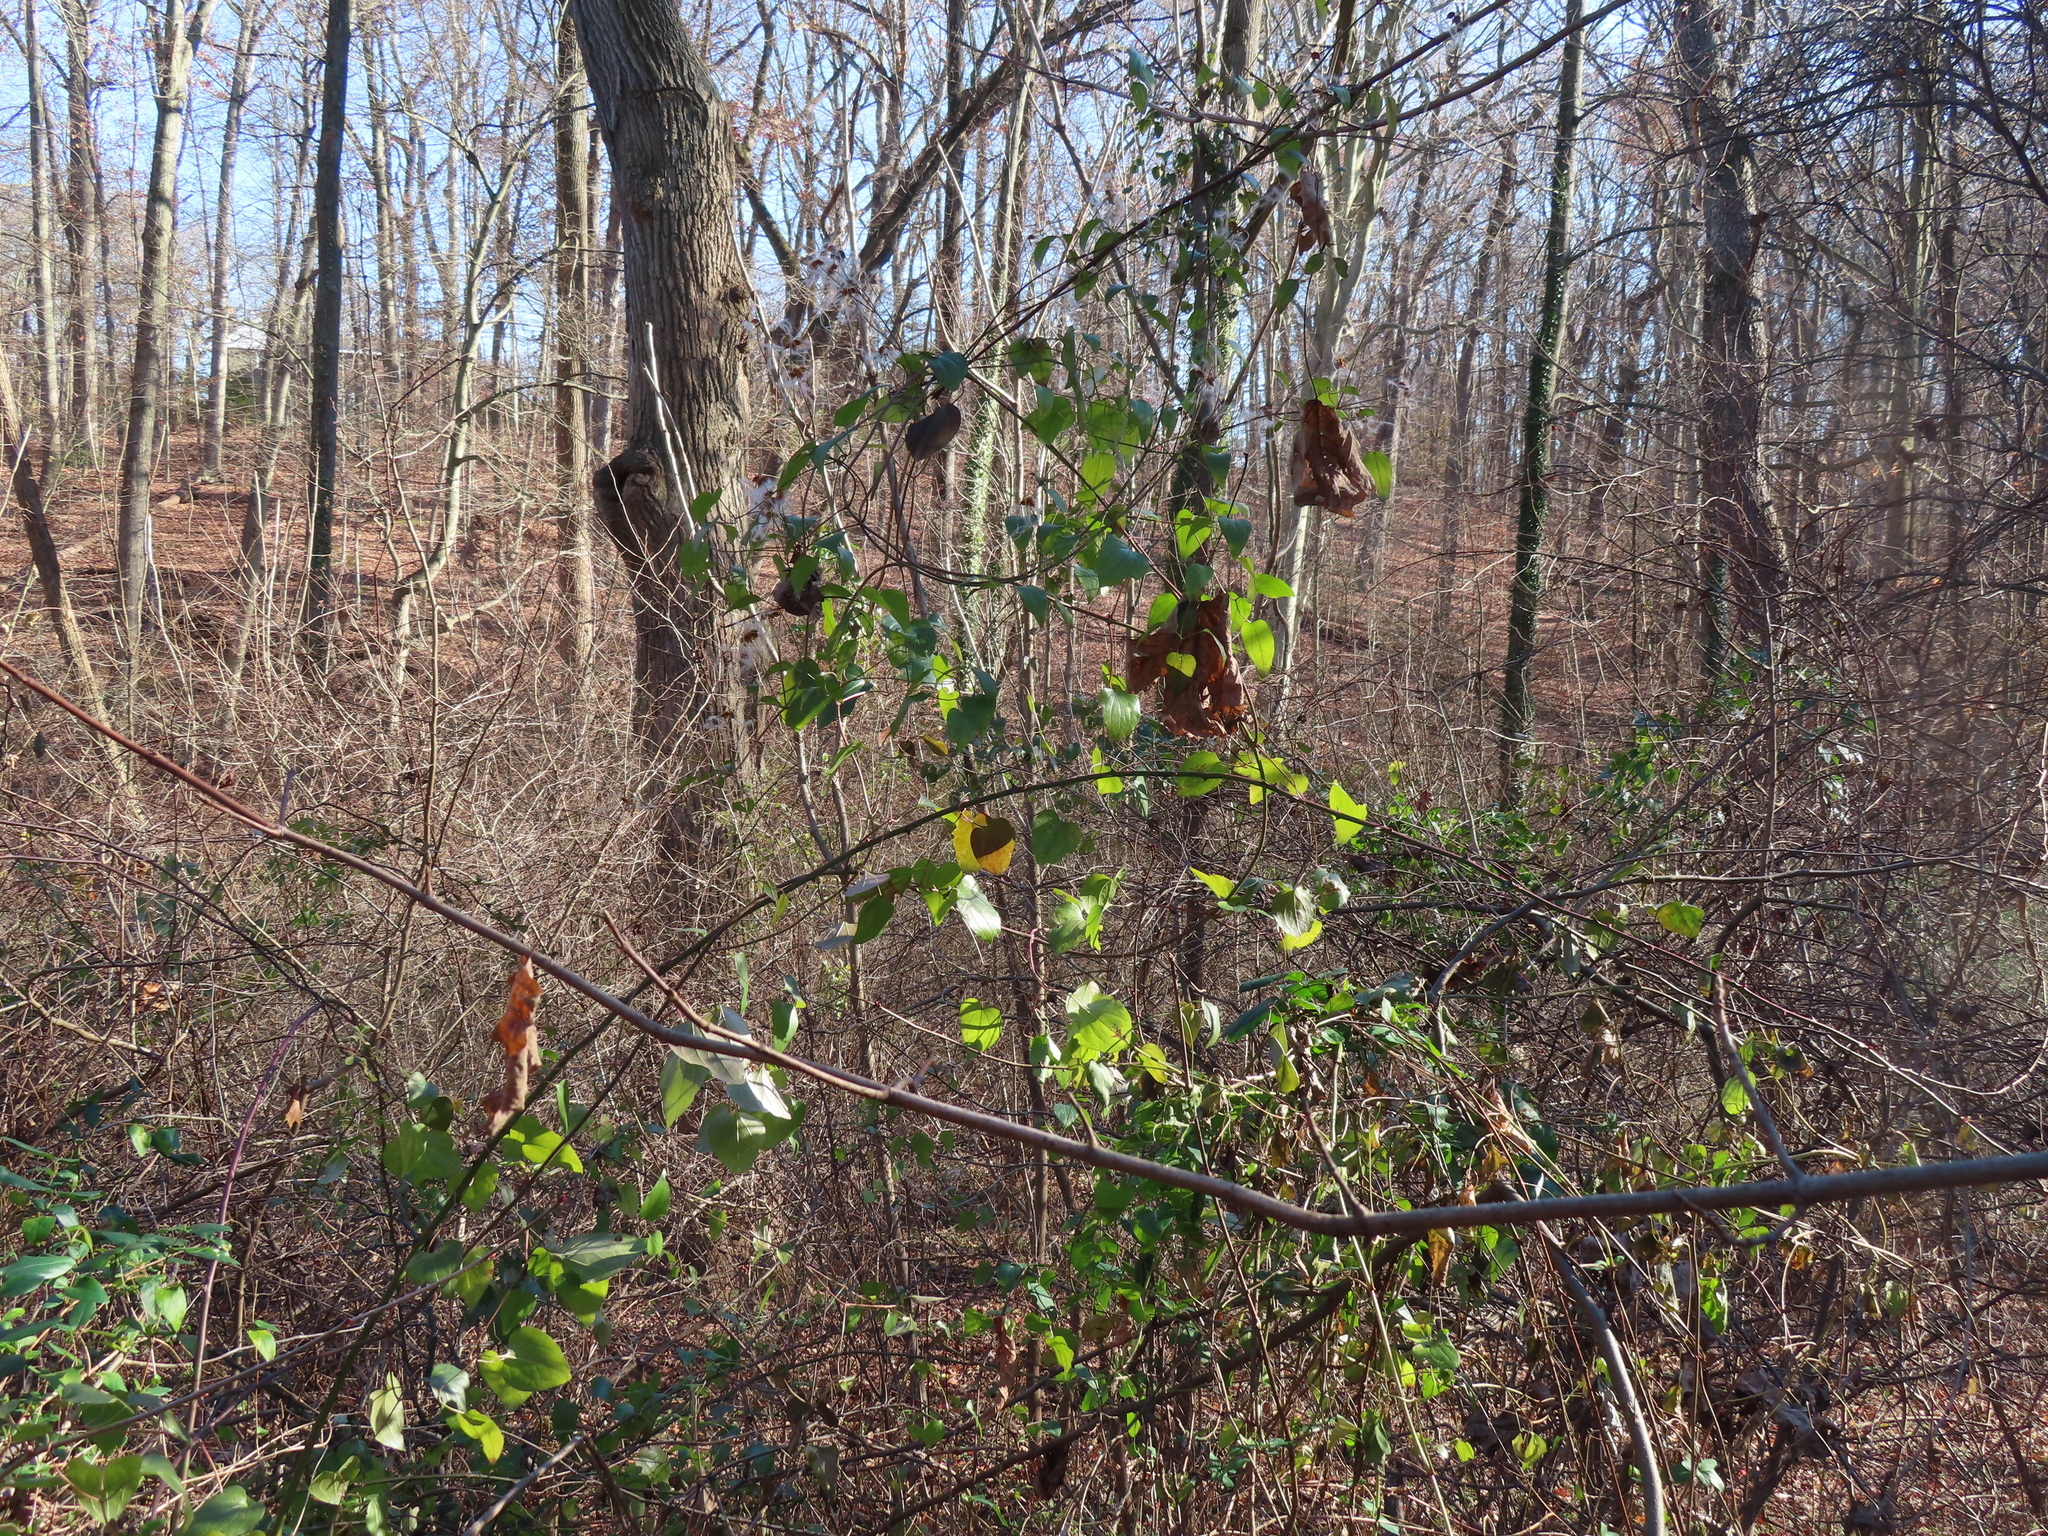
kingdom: Plantae
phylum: Tracheophyta
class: Magnoliopsida
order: Ranunculales
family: Ranunculaceae
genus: Clematis
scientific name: Clematis terniflora
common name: Sweet autumn clematis
